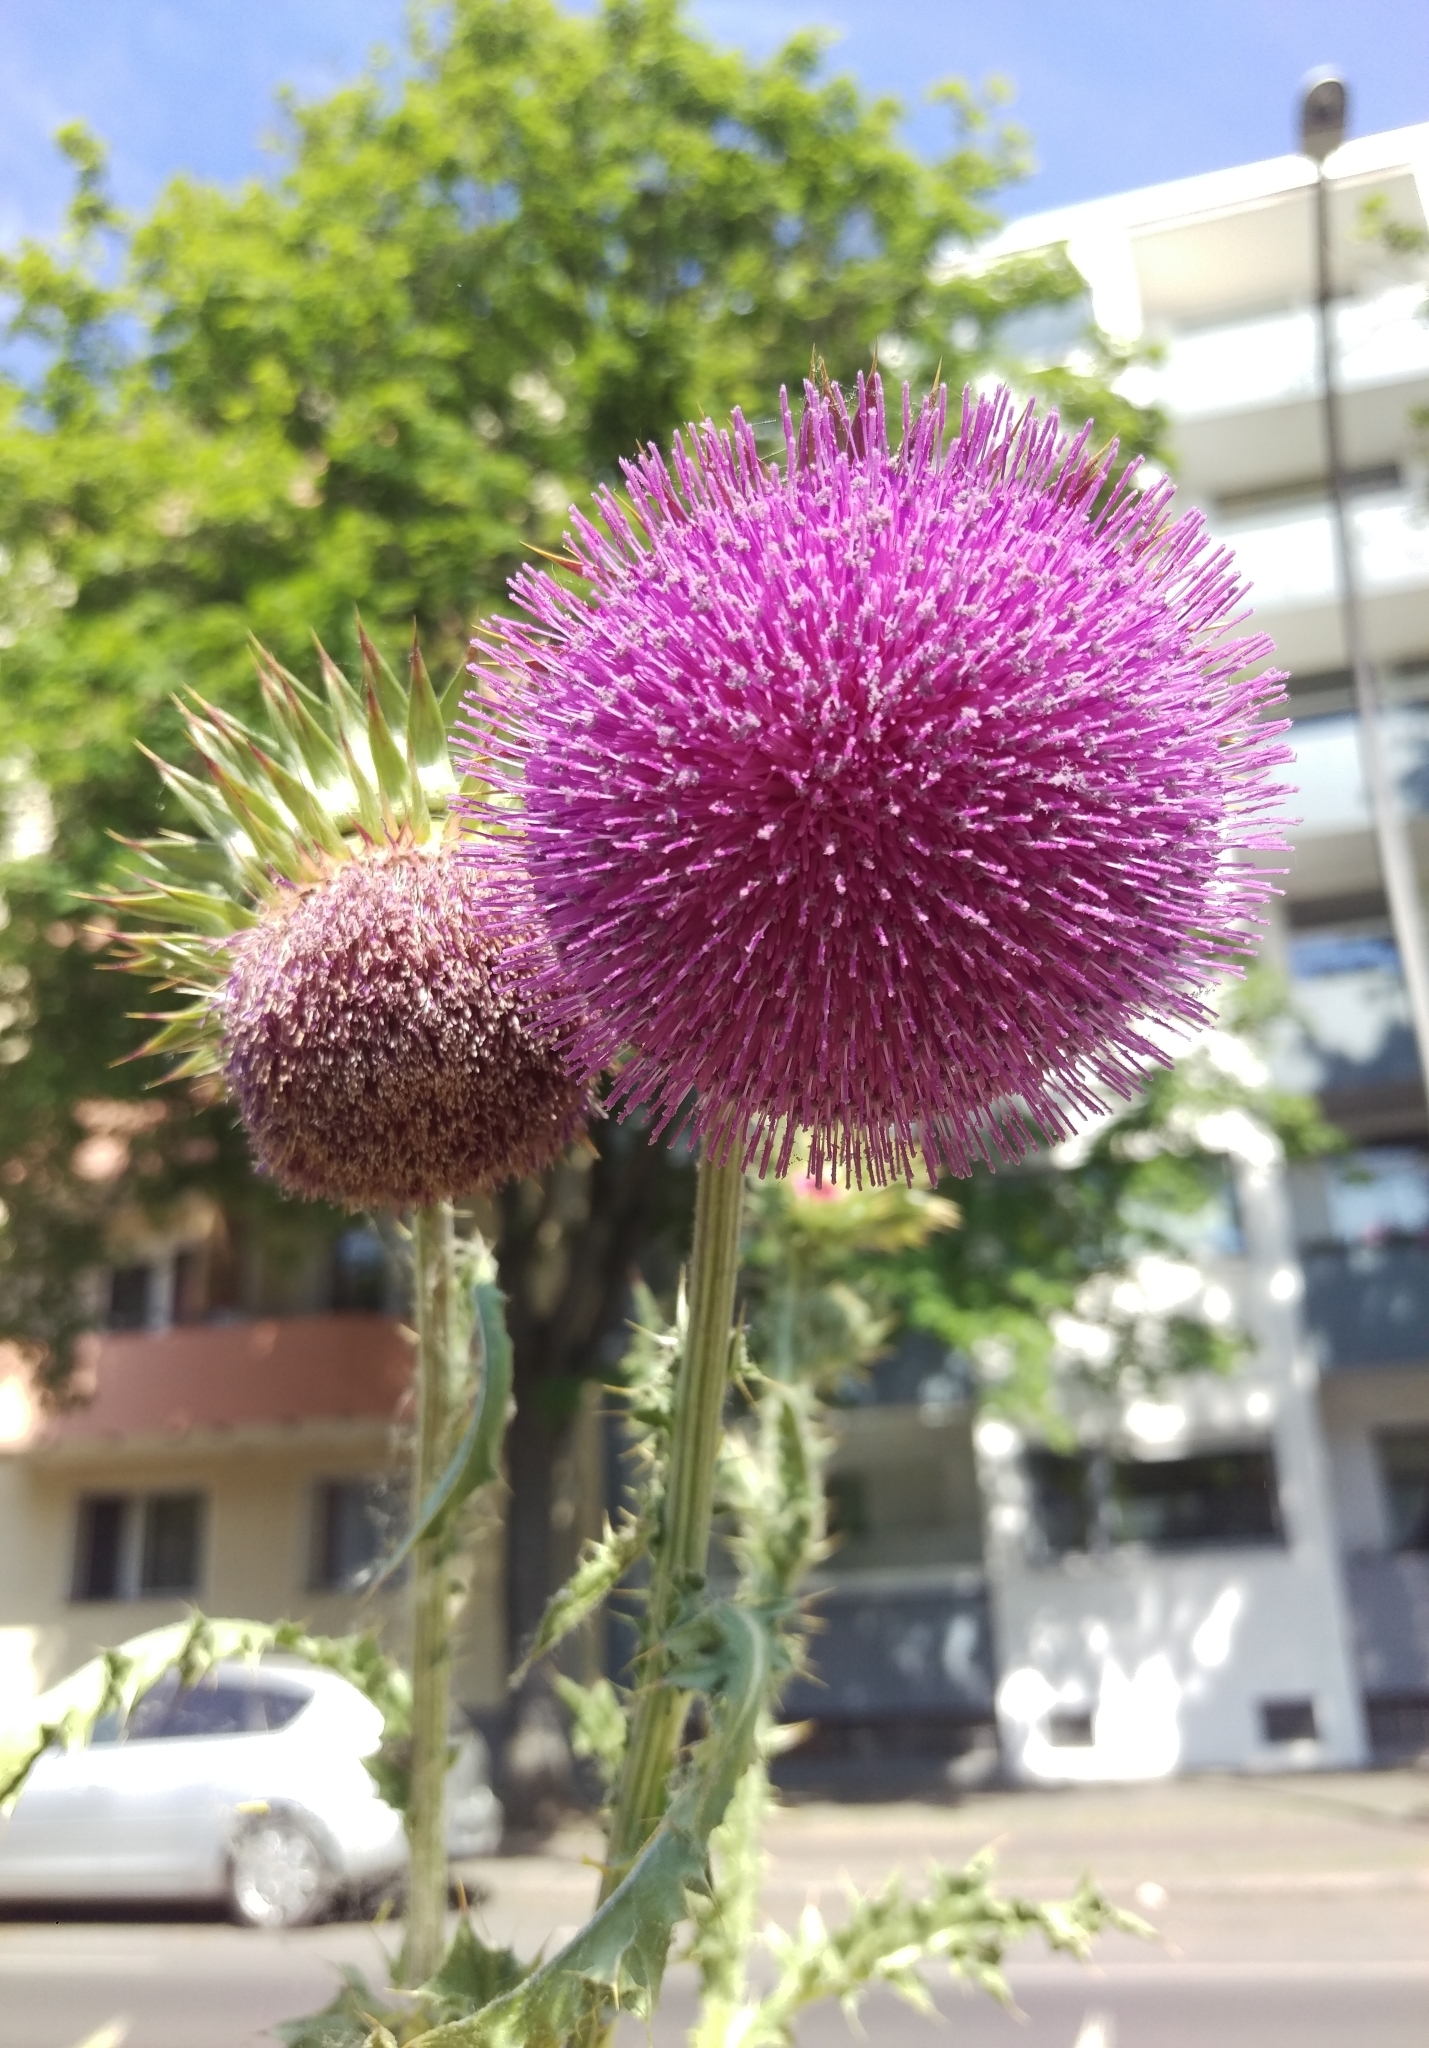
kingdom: Plantae
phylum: Tracheophyta
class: Magnoliopsida
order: Asterales
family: Asteraceae
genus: Carduus
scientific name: Carduus nutans
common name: Musk thistle
